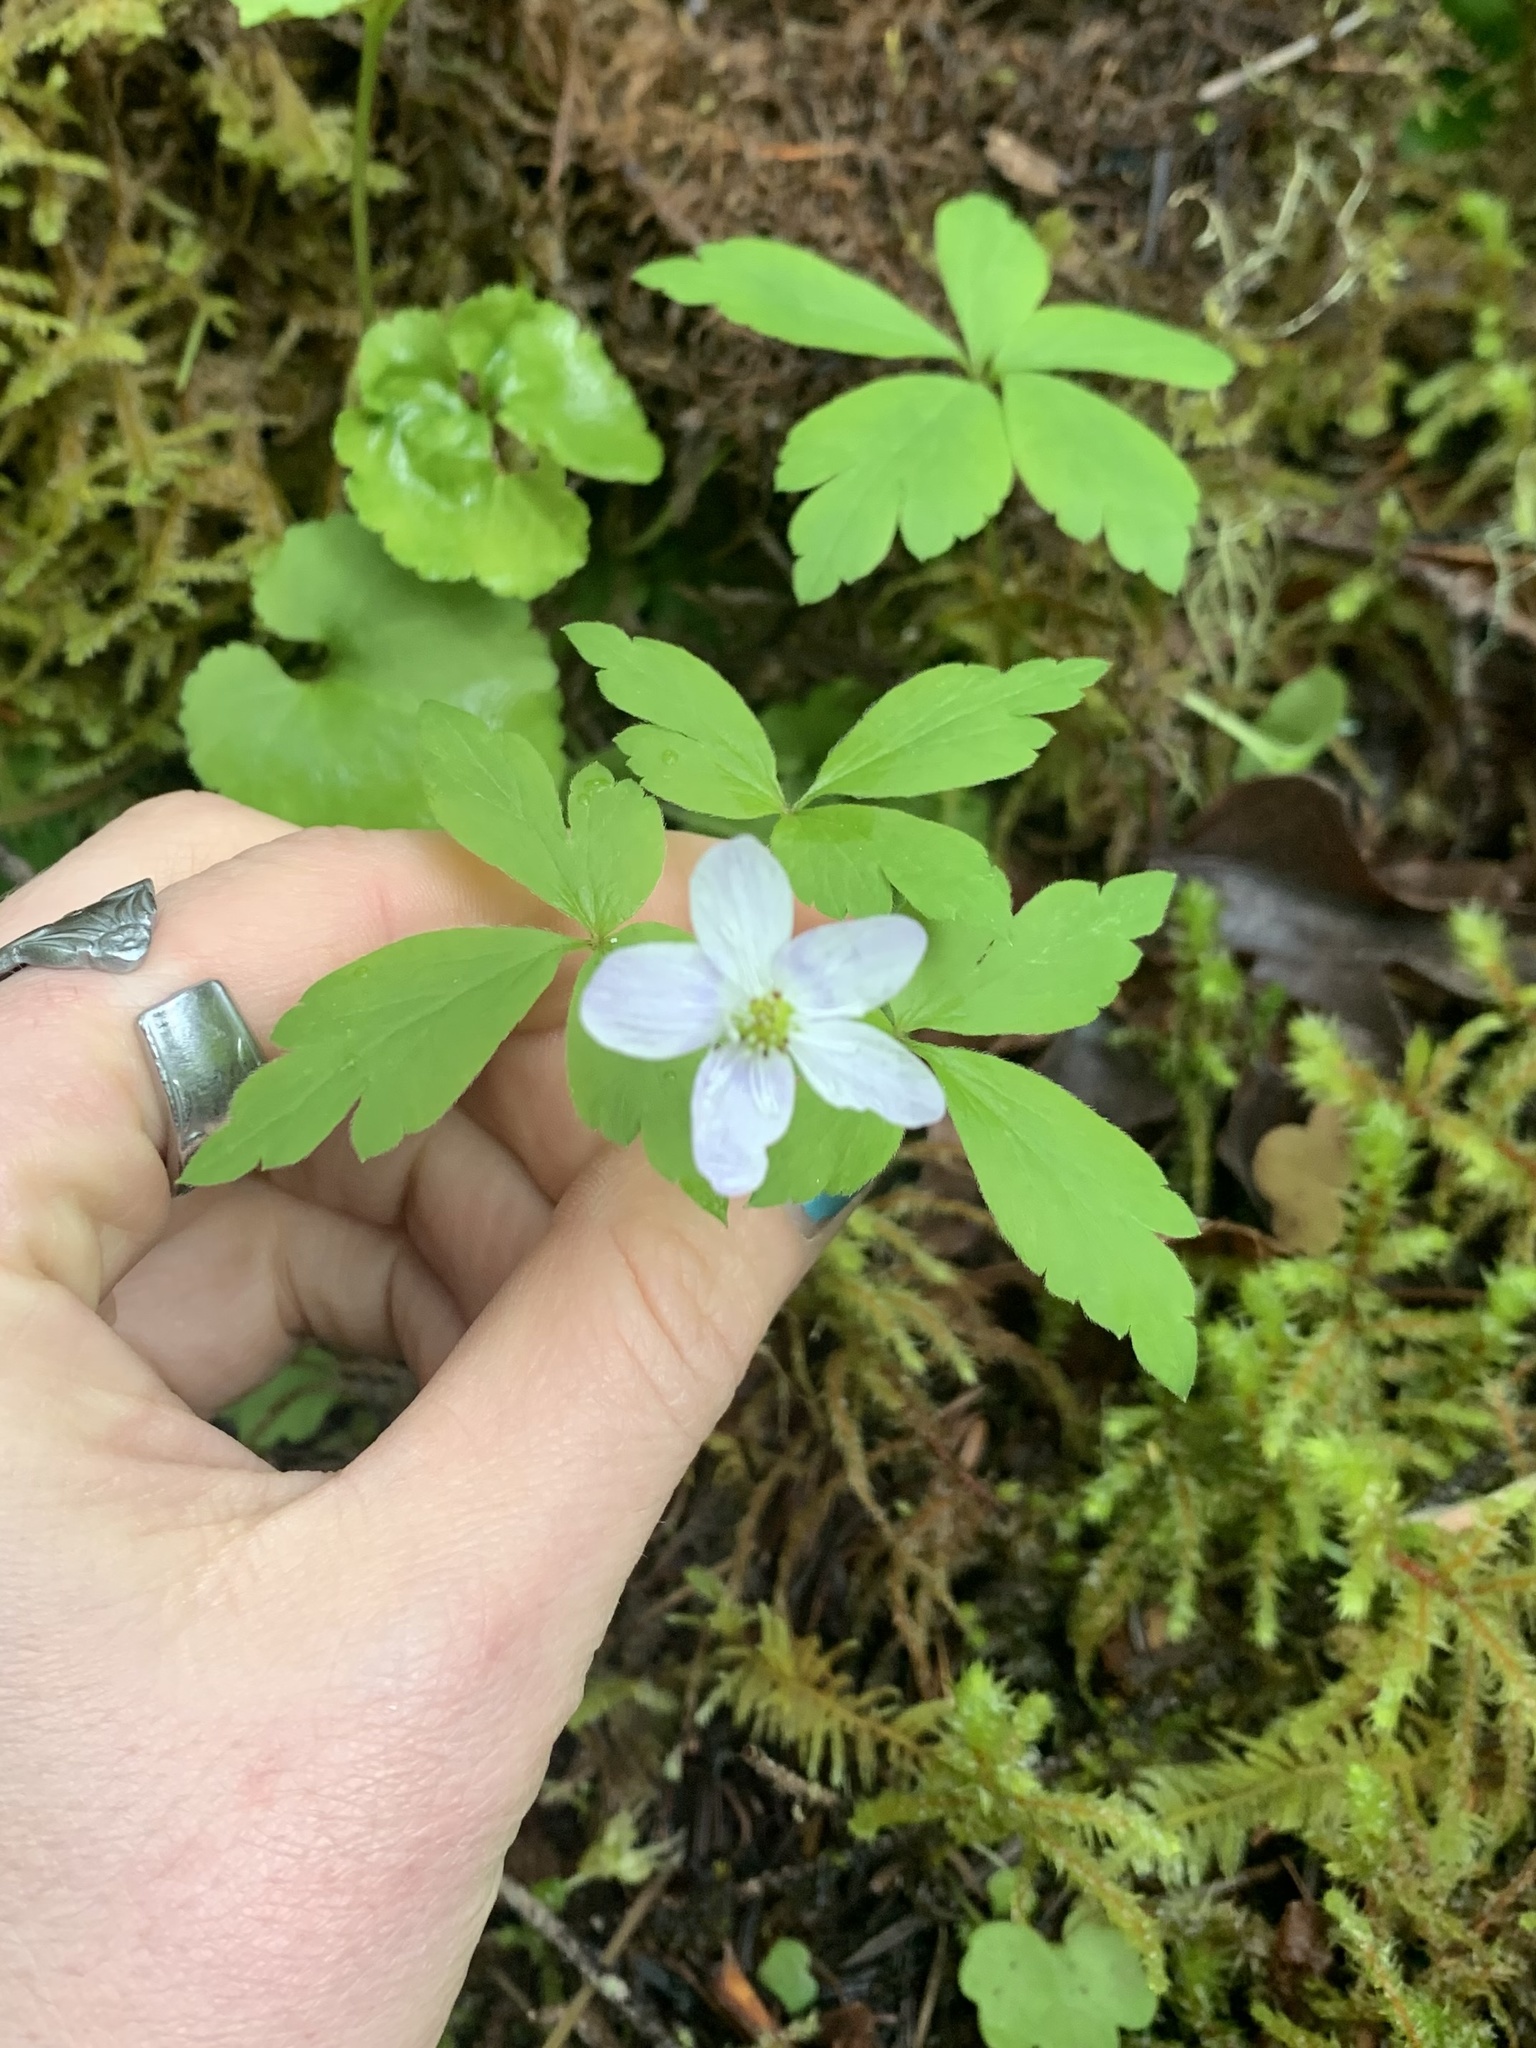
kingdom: Plantae
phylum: Tracheophyta
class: Magnoliopsida
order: Ranunculales
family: Ranunculaceae
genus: Anemone
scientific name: Anemone
